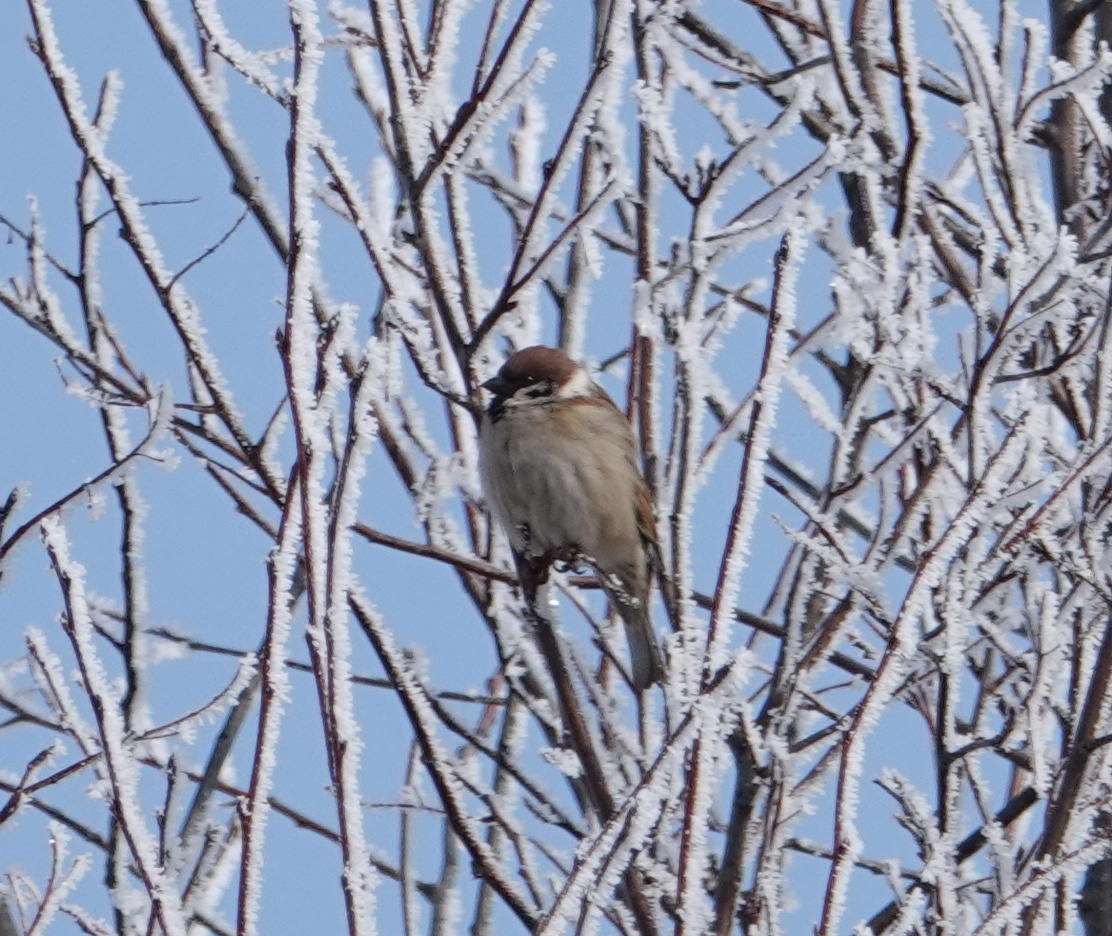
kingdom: Animalia
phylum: Chordata
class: Aves
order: Passeriformes
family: Passeridae
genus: Passer
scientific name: Passer montanus
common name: Eurasian tree sparrow
